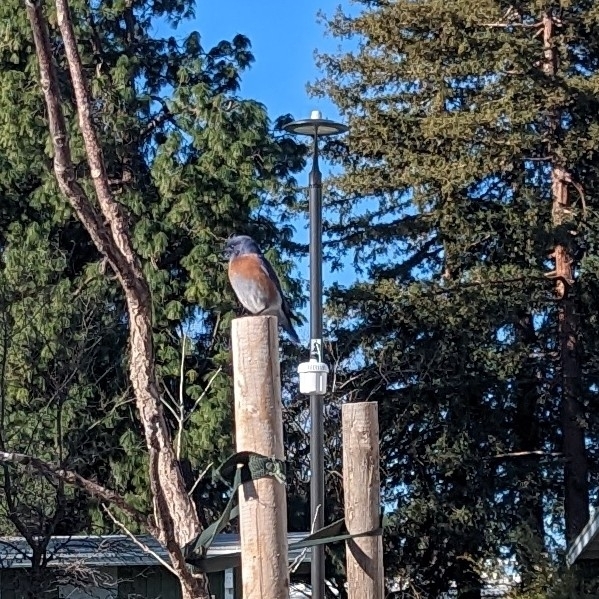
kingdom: Animalia
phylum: Chordata
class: Aves
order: Passeriformes
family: Turdidae
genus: Sialia
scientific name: Sialia mexicana
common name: Western bluebird
